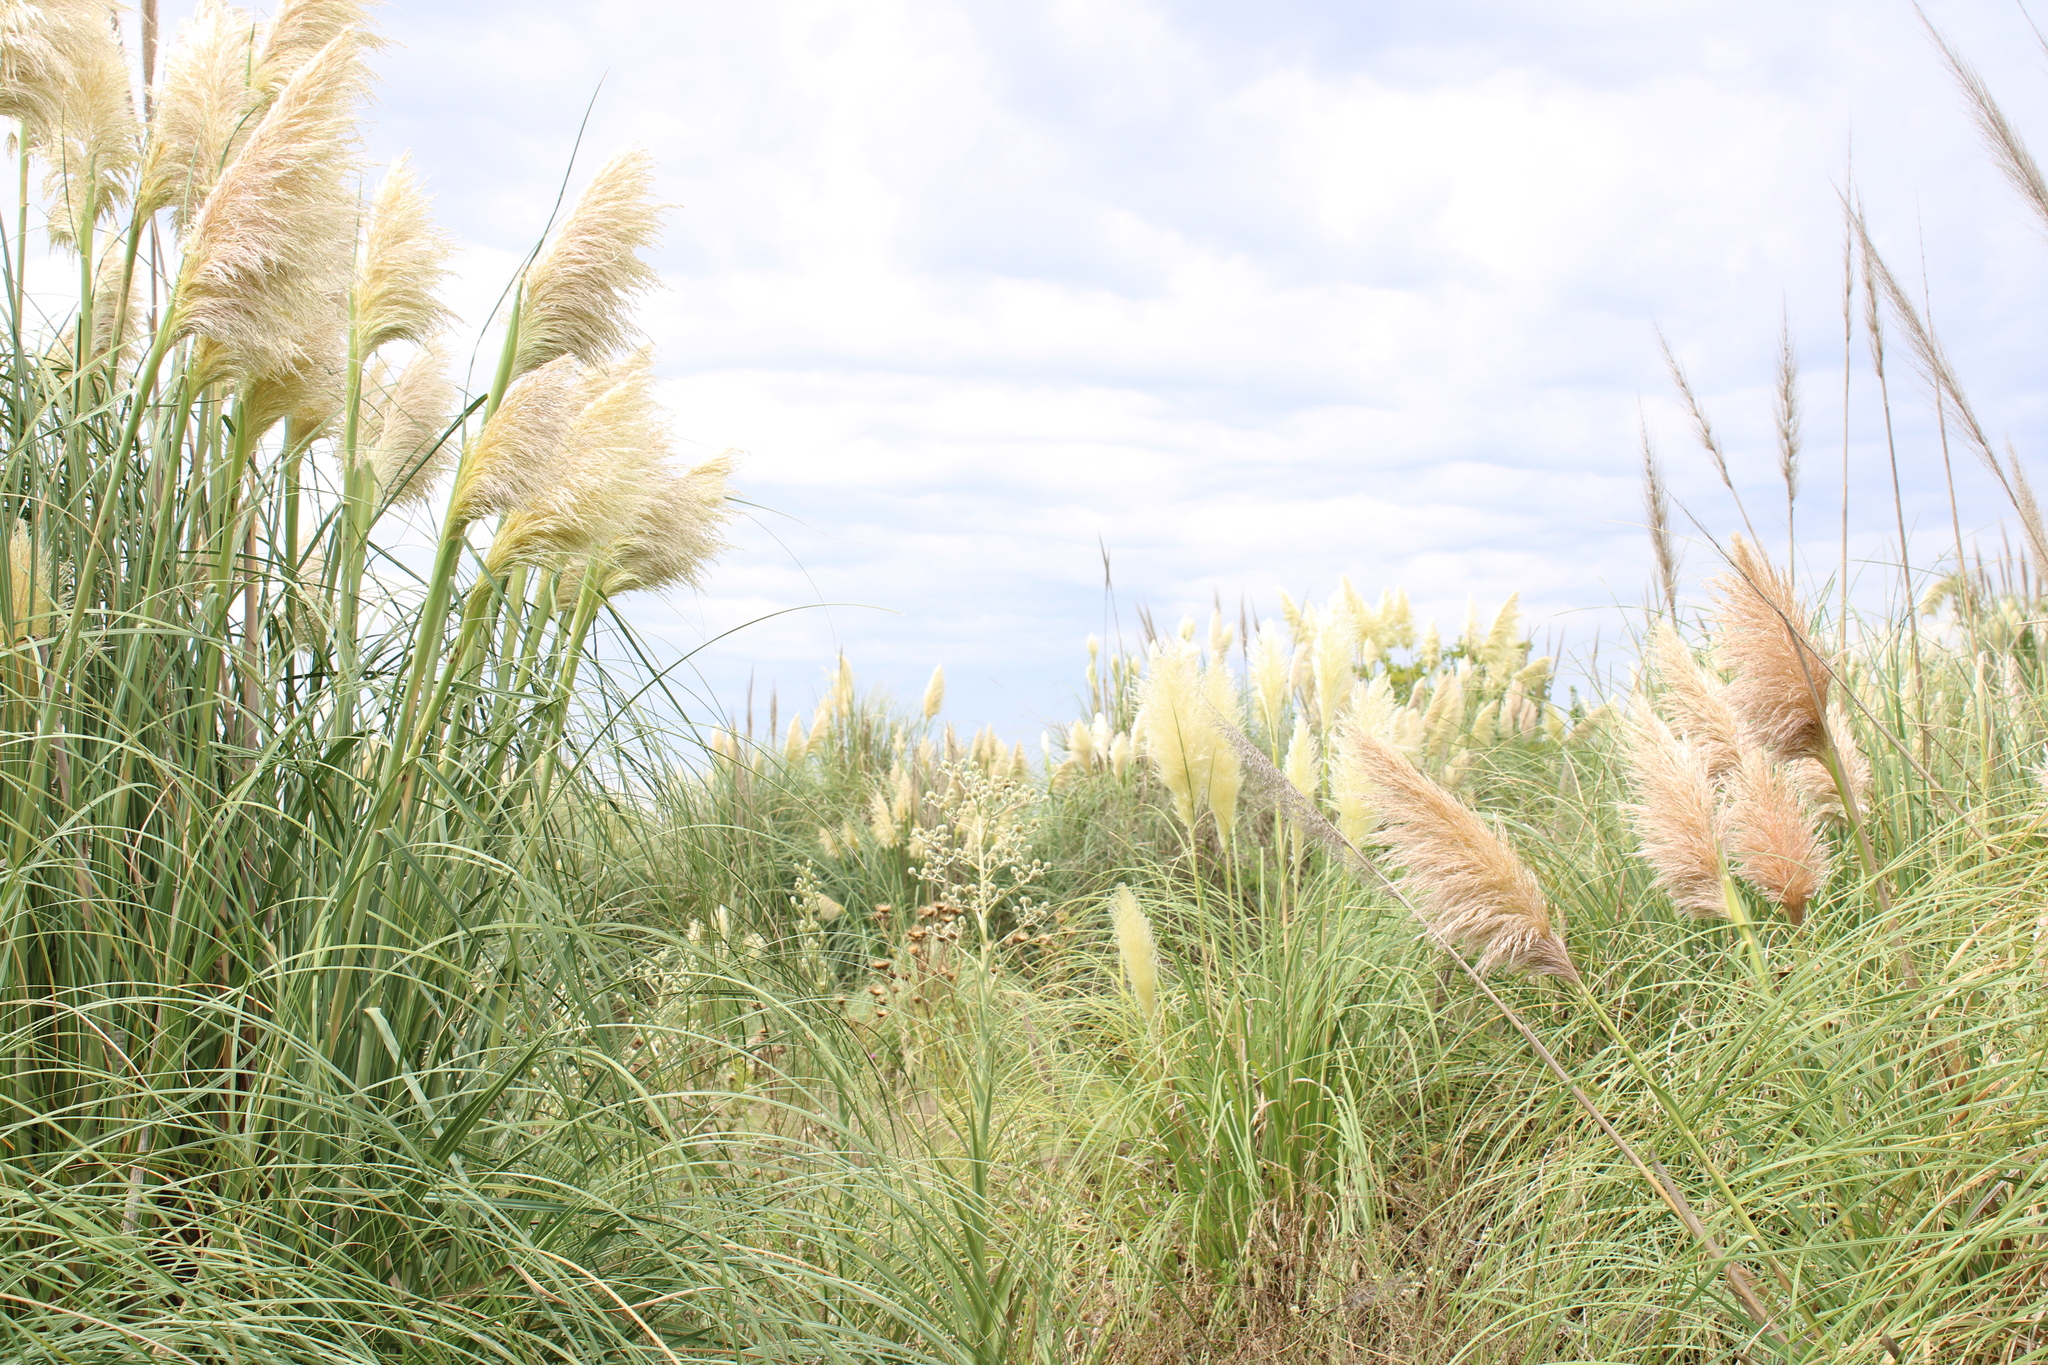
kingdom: Plantae
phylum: Tracheophyta
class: Liliopsida
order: Poales
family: Poaceae
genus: Cortaderia
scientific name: Cortaderia selloana
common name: Uruguayan pampas grass
